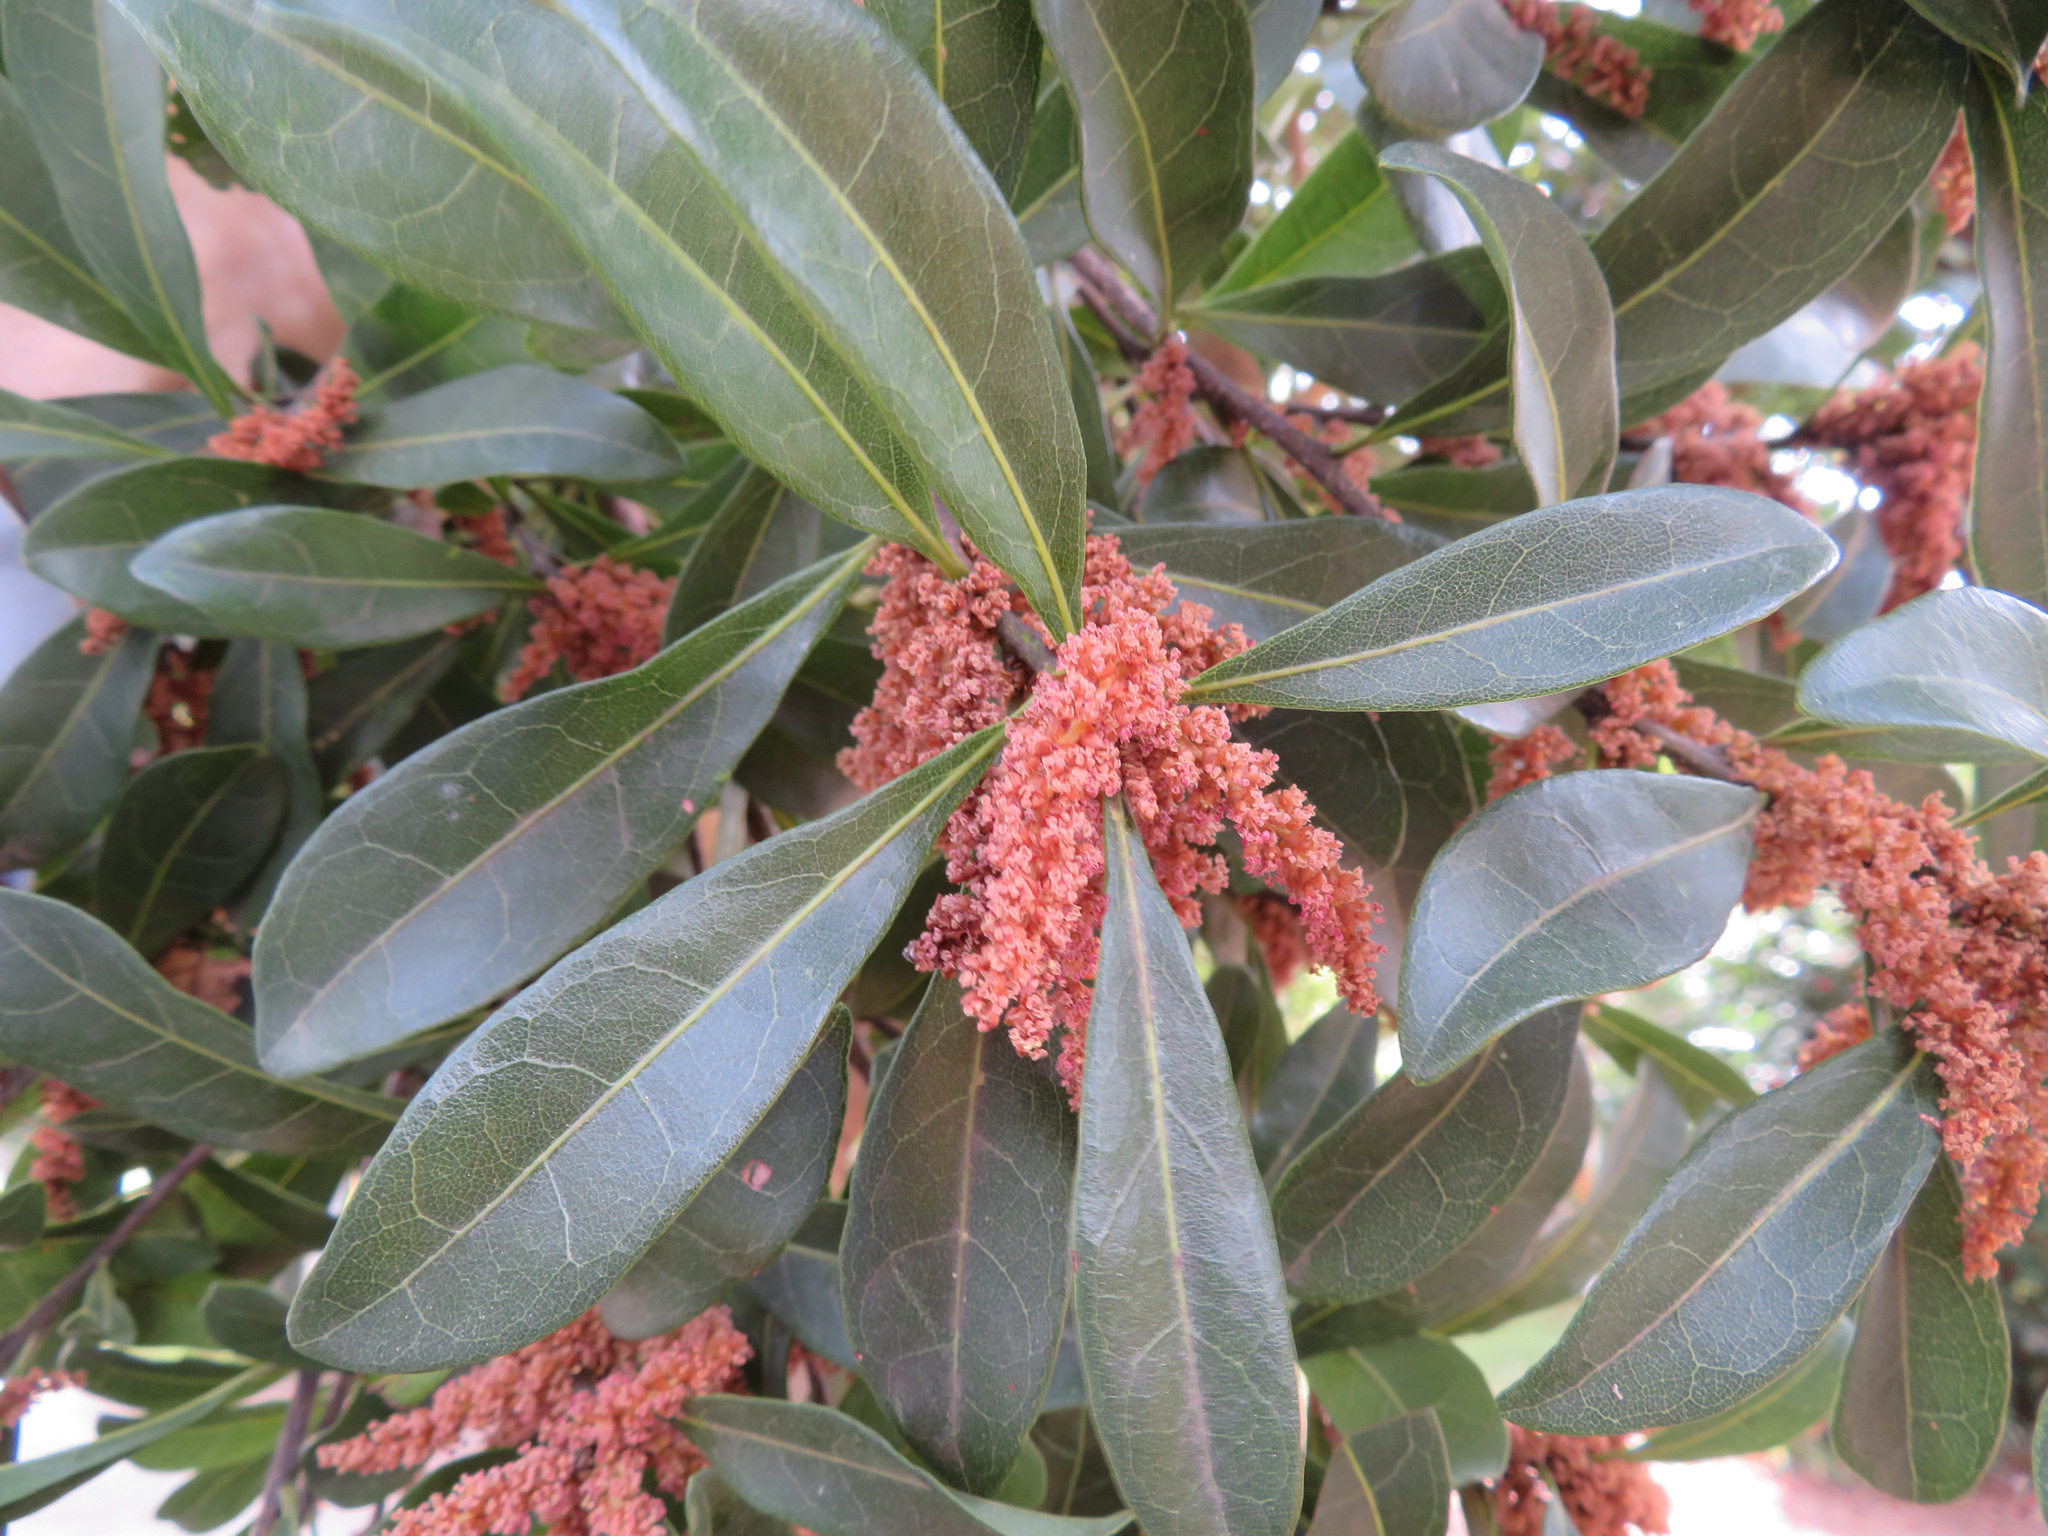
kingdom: Plantae
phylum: Tracheophyta
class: Magnoliopsida
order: Fagales
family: Myricaceae
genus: Morella
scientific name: Morella rubra
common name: Red bayberry
